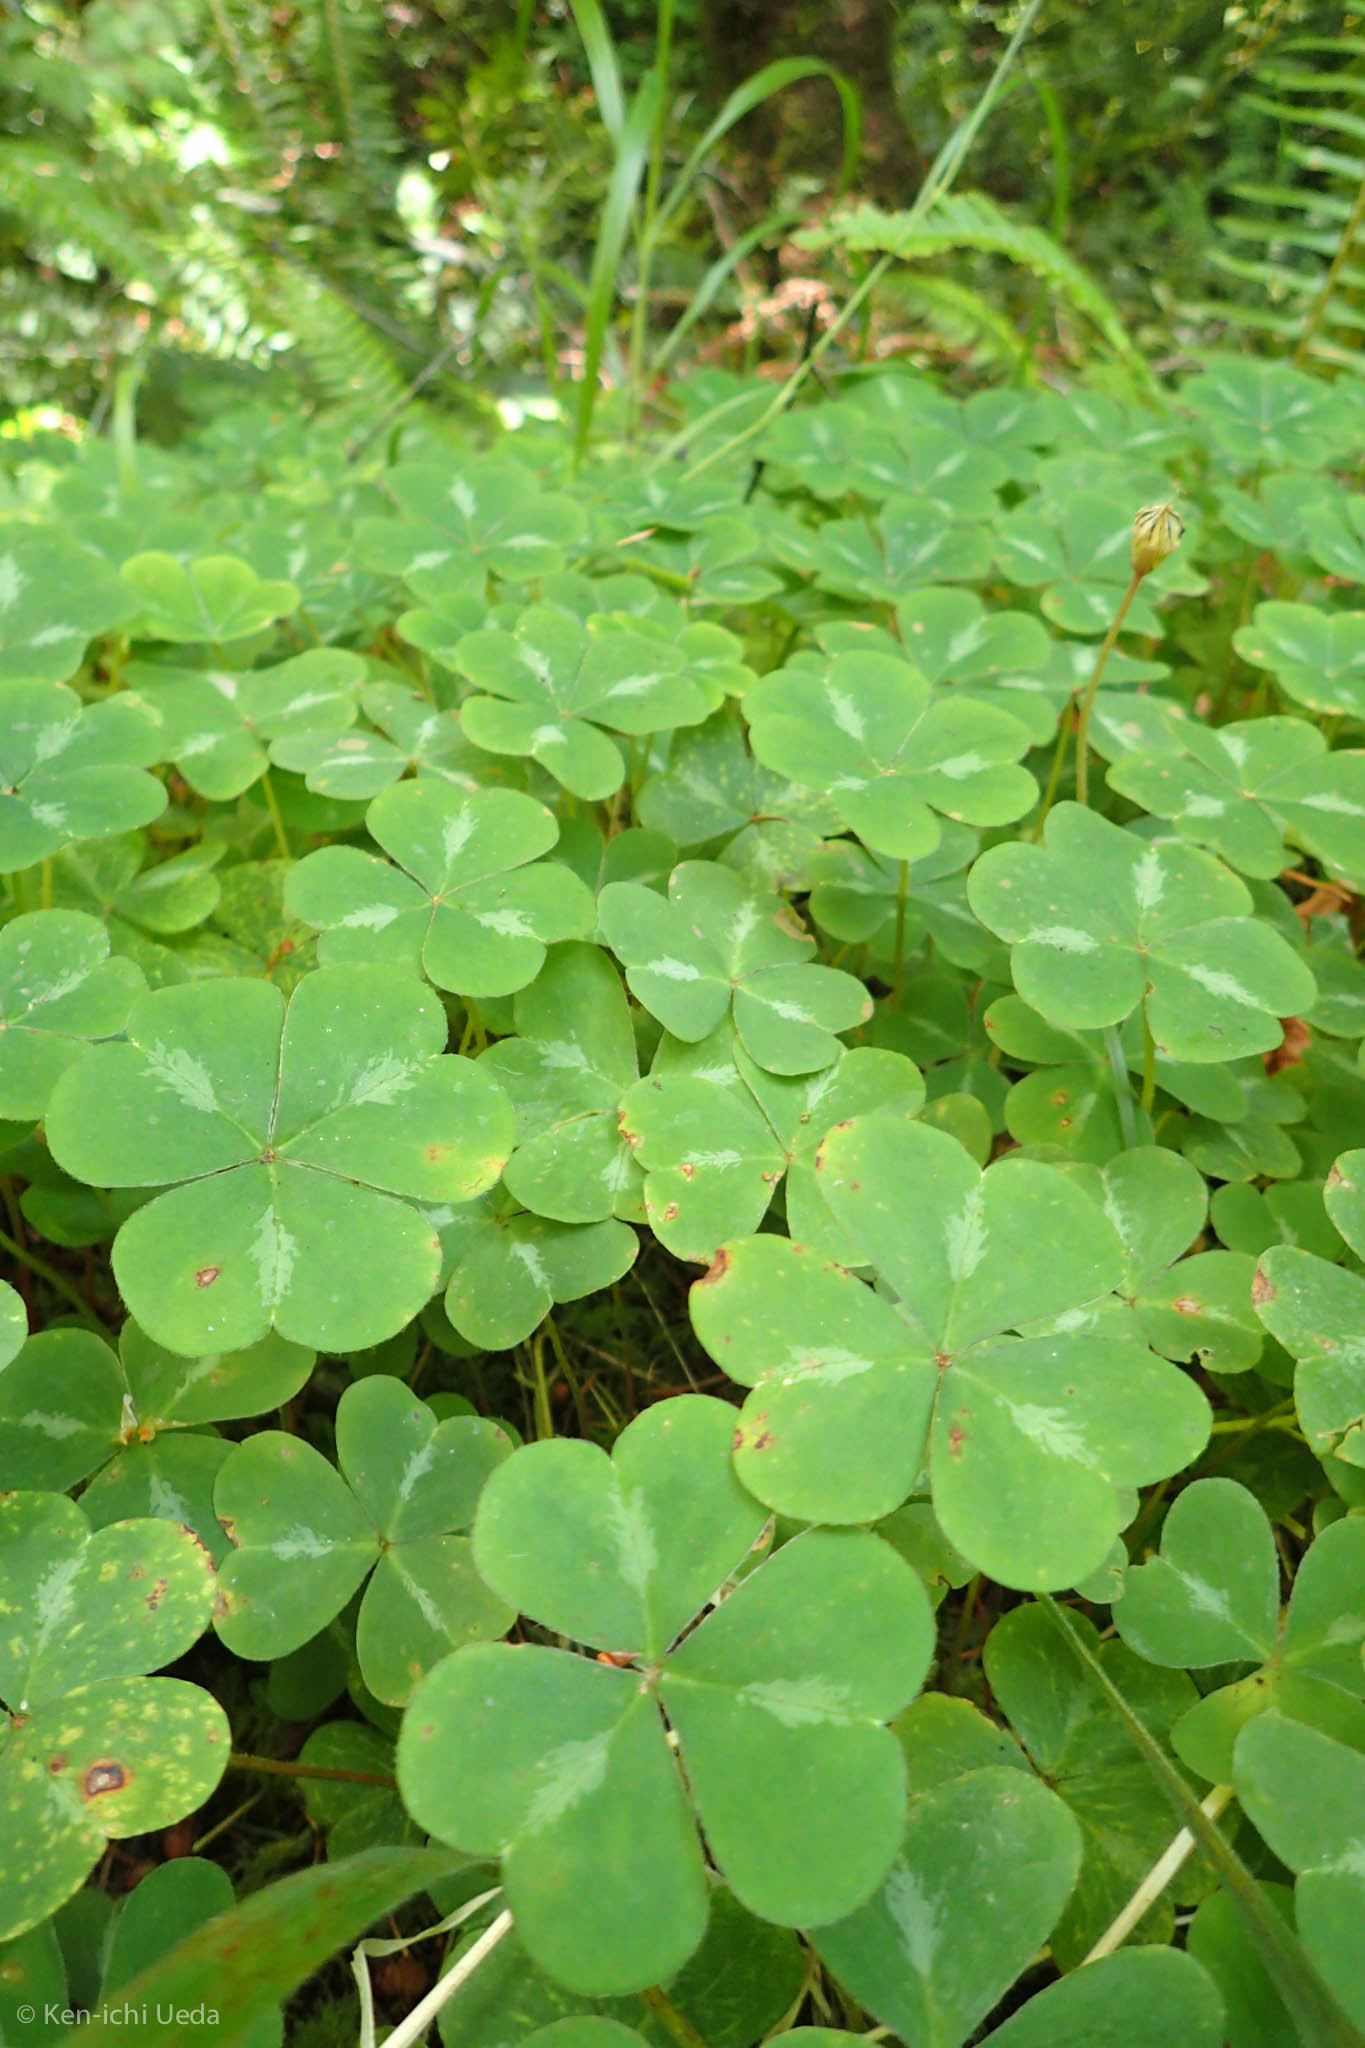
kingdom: Plantae
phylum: Tracheophyta
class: Magnoliopsida
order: Oxalidales
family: Oxalidaceae
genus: Oxalis
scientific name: Oxalis oregana
